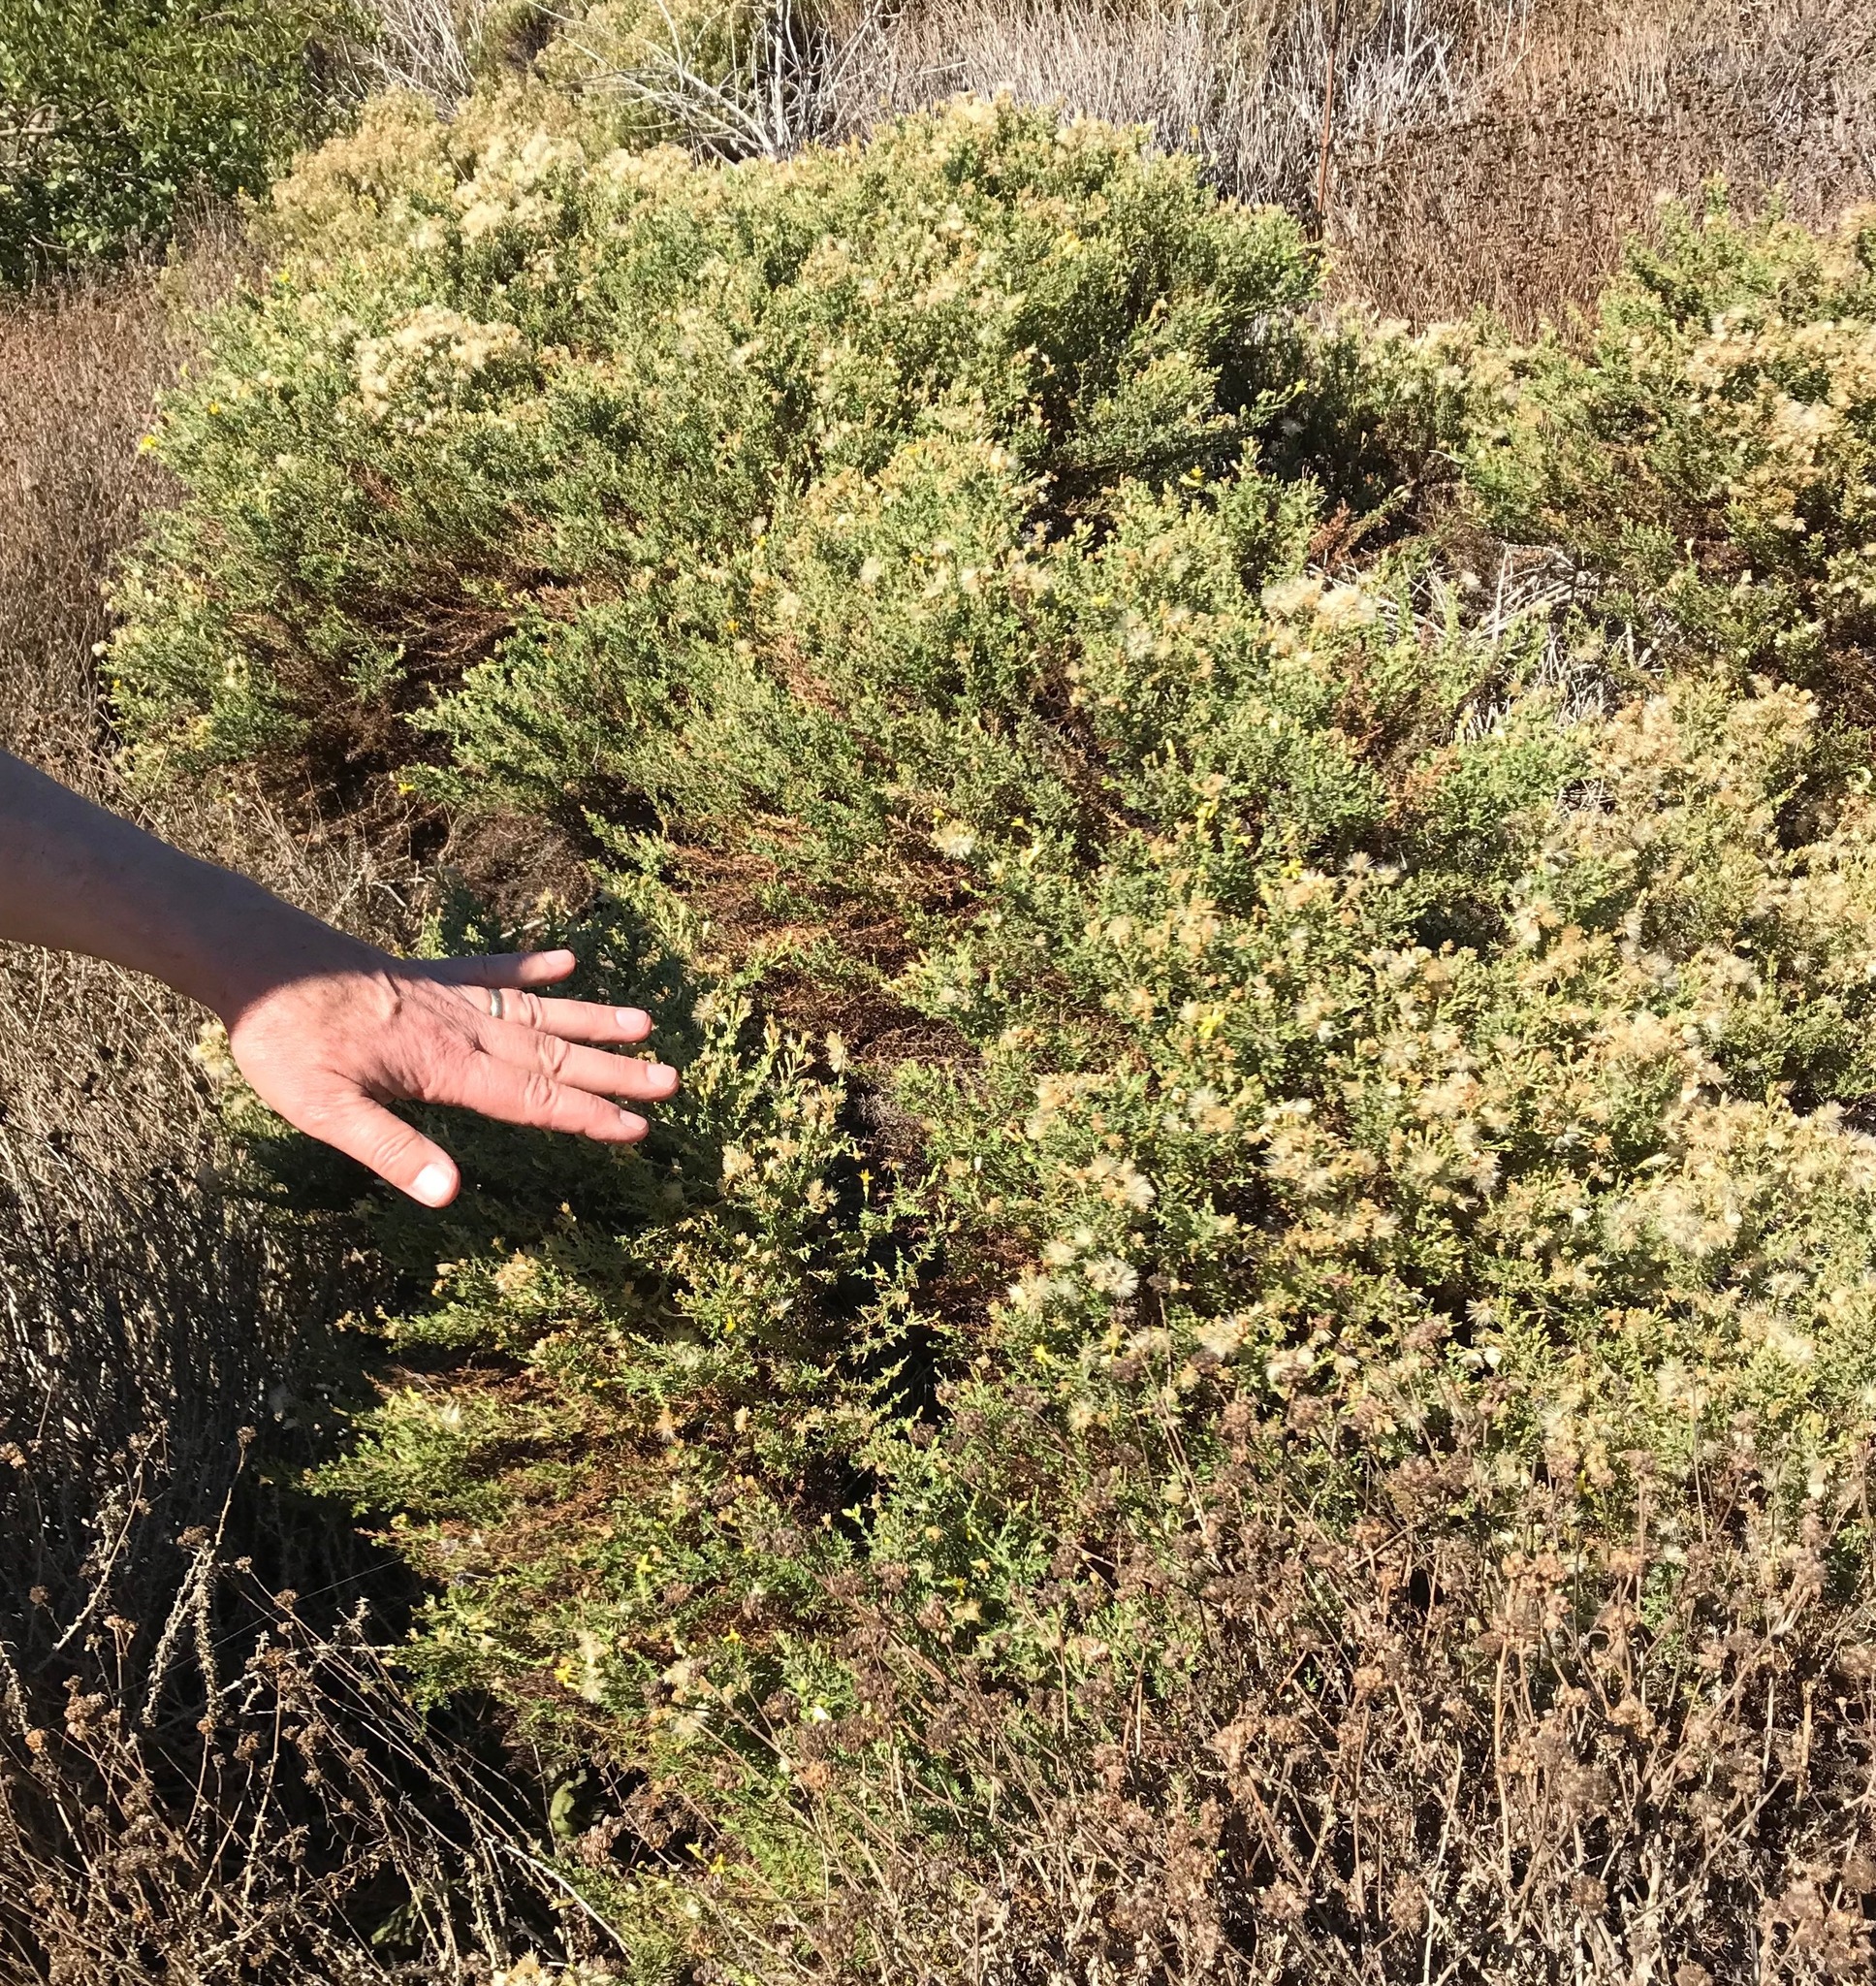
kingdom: Plantae
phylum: Tracheophyta
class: Magnoliopsida
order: Asterales
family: Asteraceae
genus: Ericameria
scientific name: Ericameria ericoides
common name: California goldenbush
